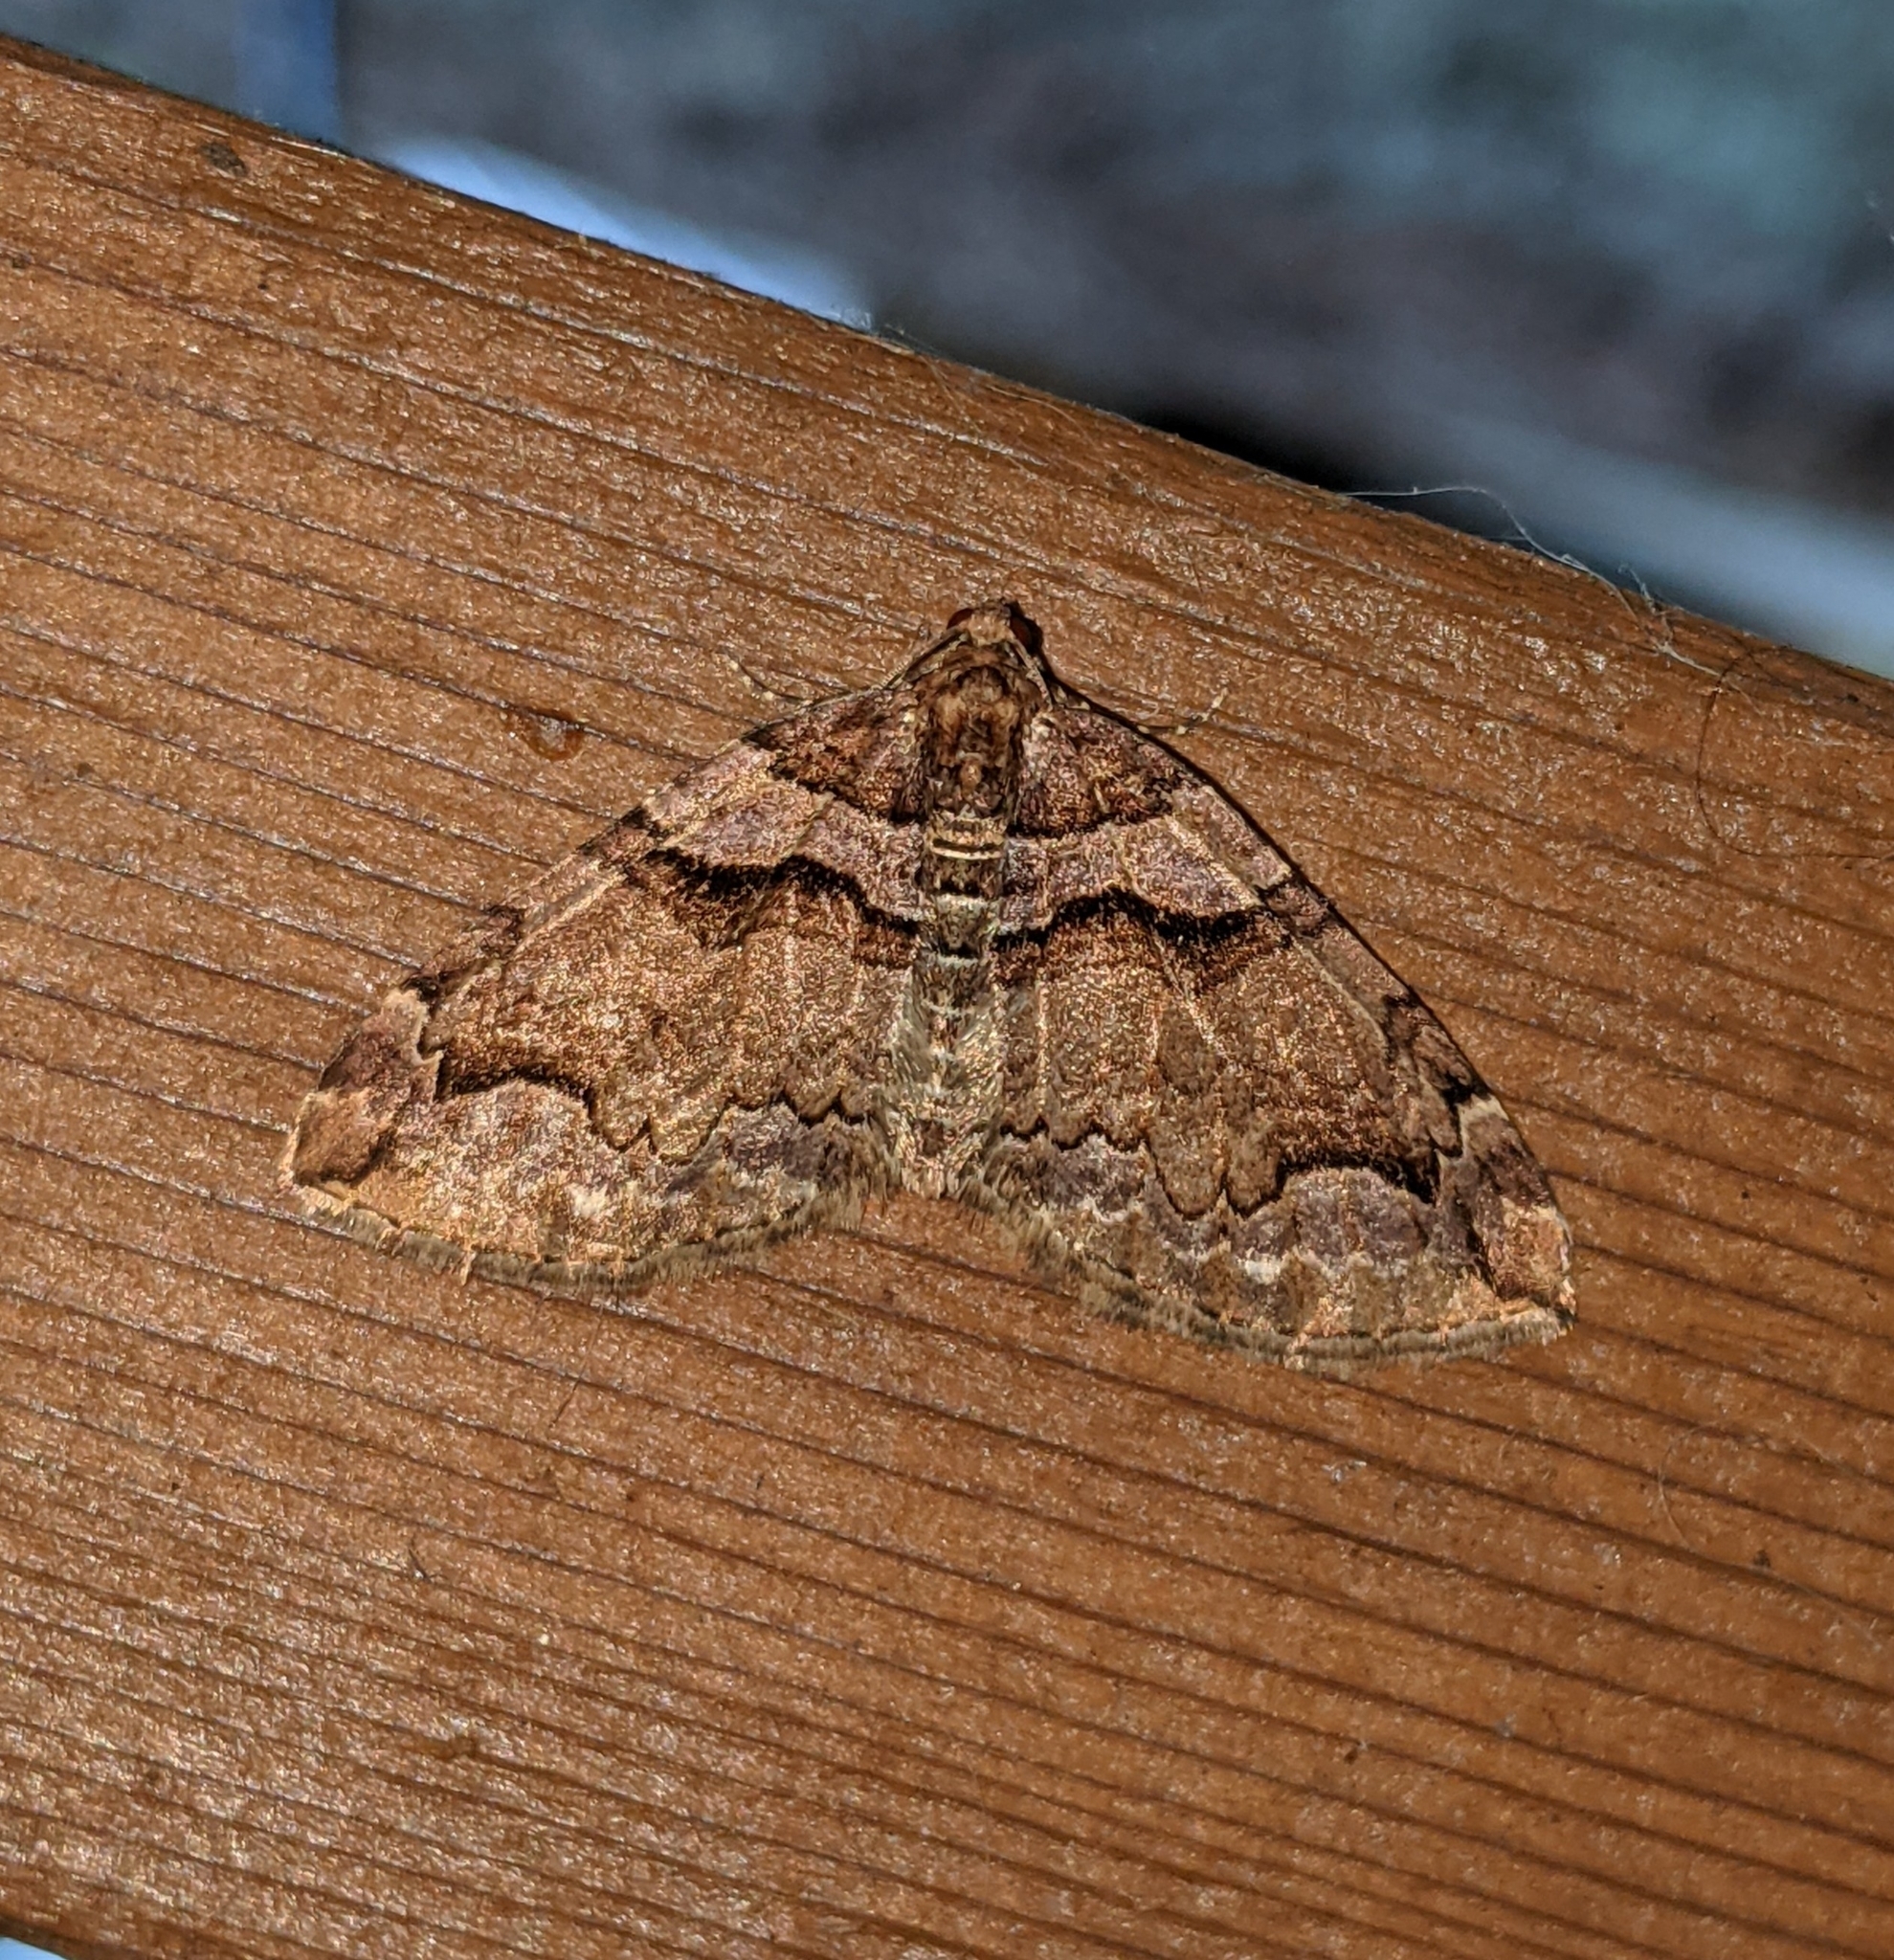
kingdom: Animalia
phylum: Arthropoda
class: Insecta
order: Lepidoptera
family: Geometridae
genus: Anticlea
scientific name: Anticlea vasiliata
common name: Variable carpet
